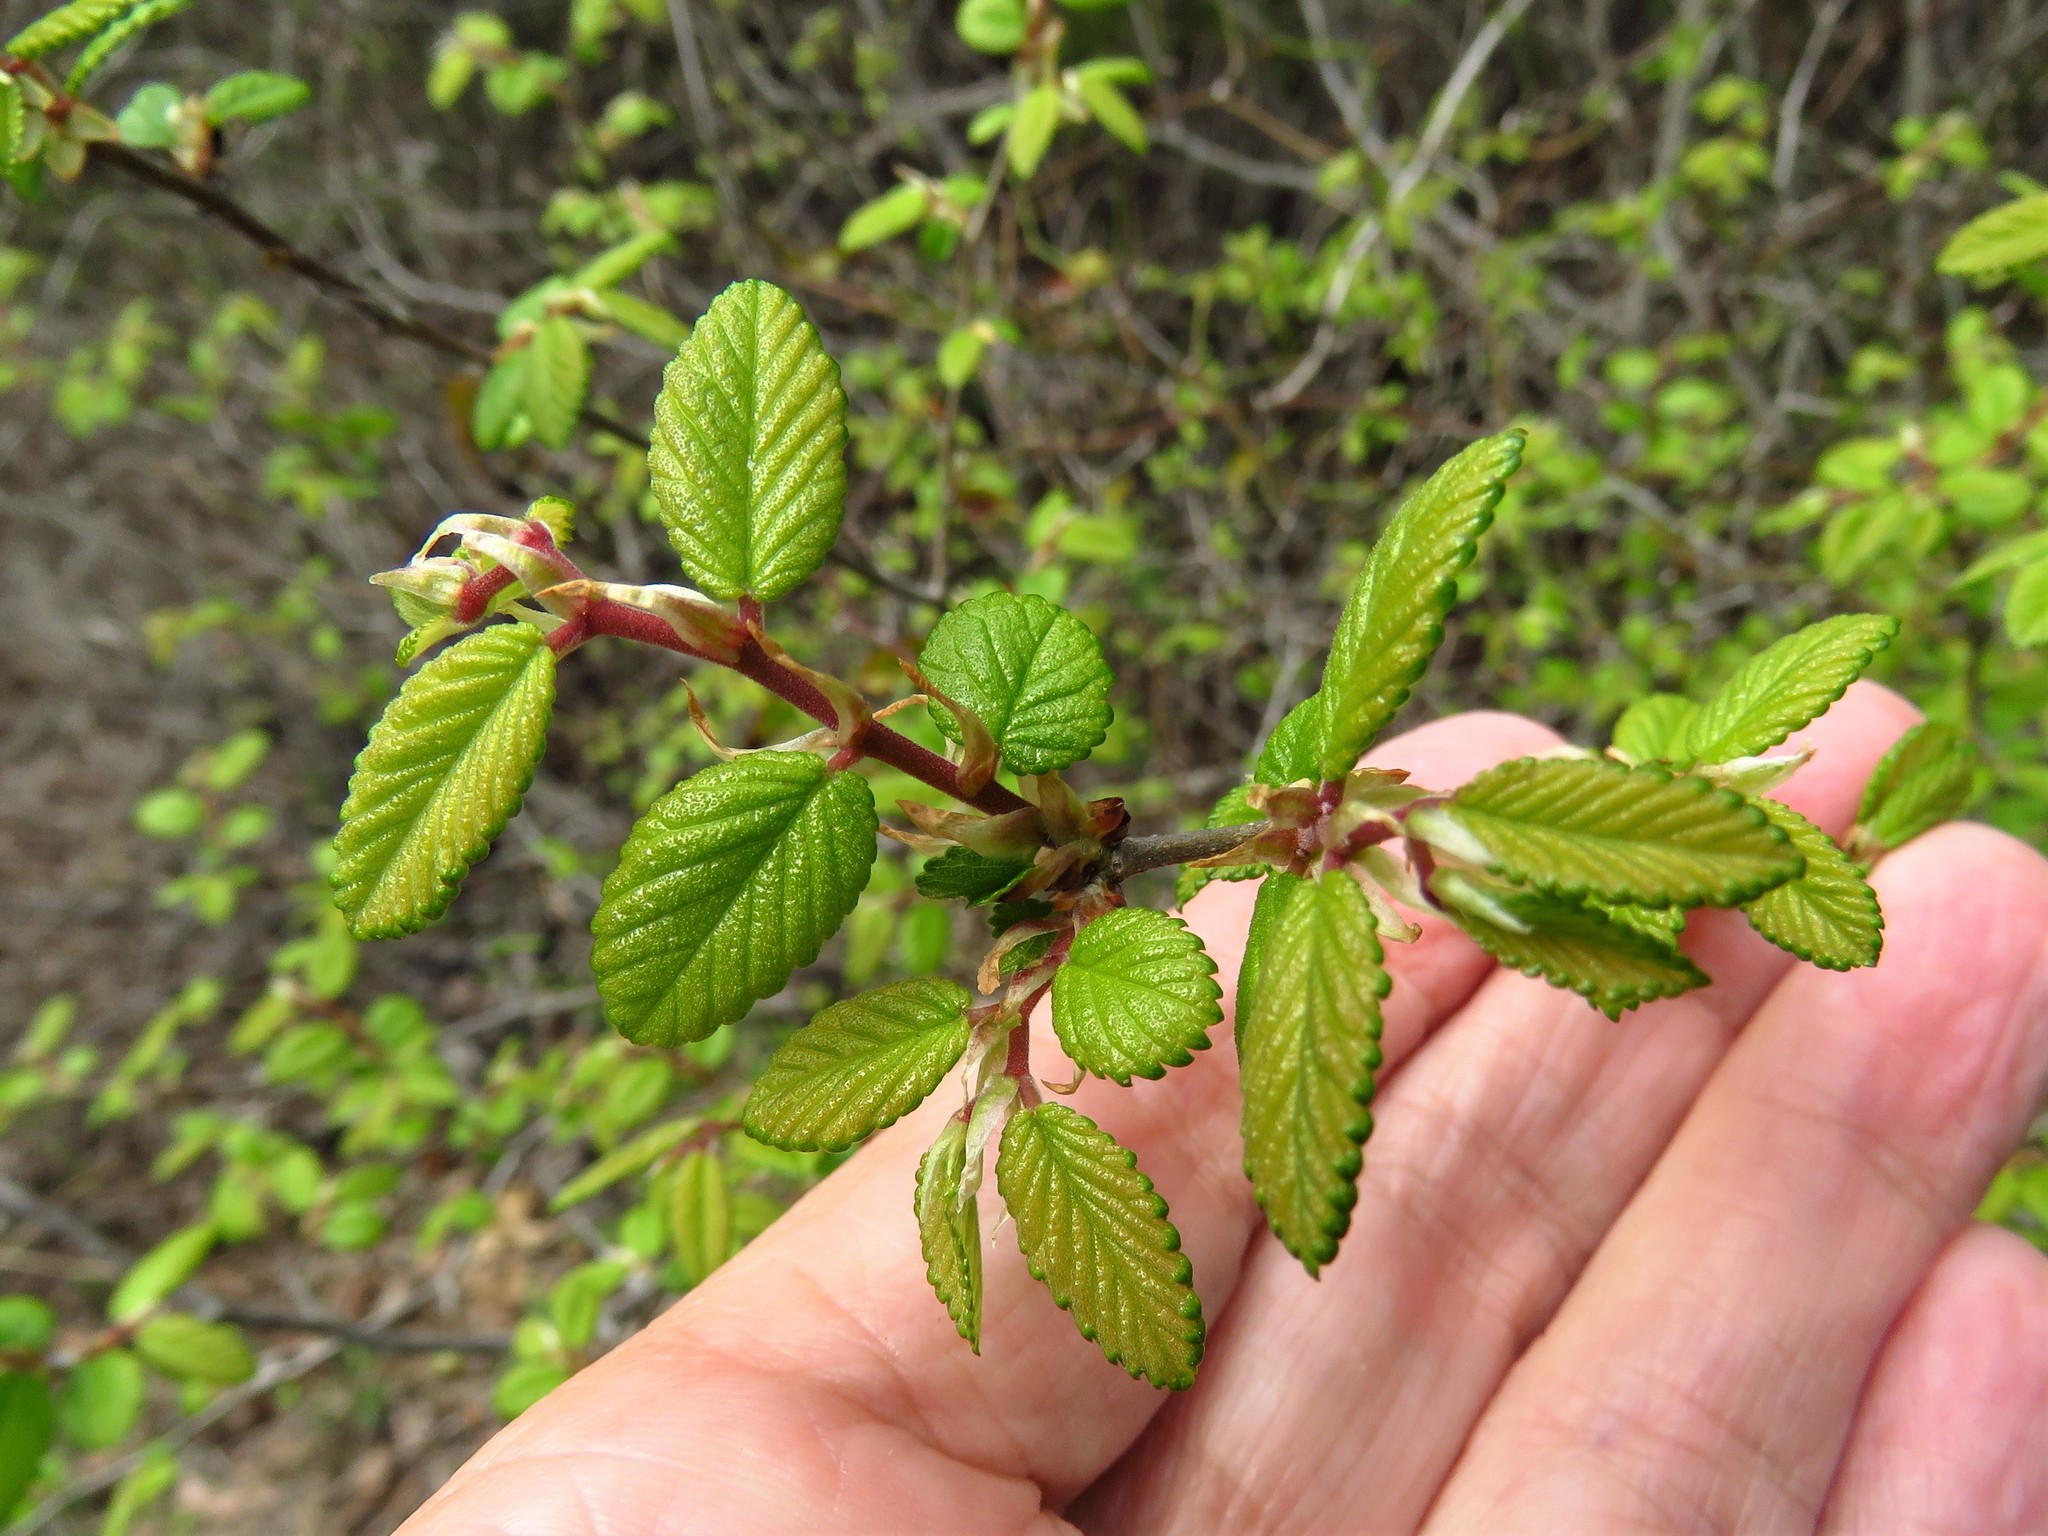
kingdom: Plantae
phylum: Tracheophyta
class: Magnoliopsida
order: Rosales
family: Ulmaceae
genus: Ulmus
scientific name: Ulmus crassifolia
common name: Basket elm
